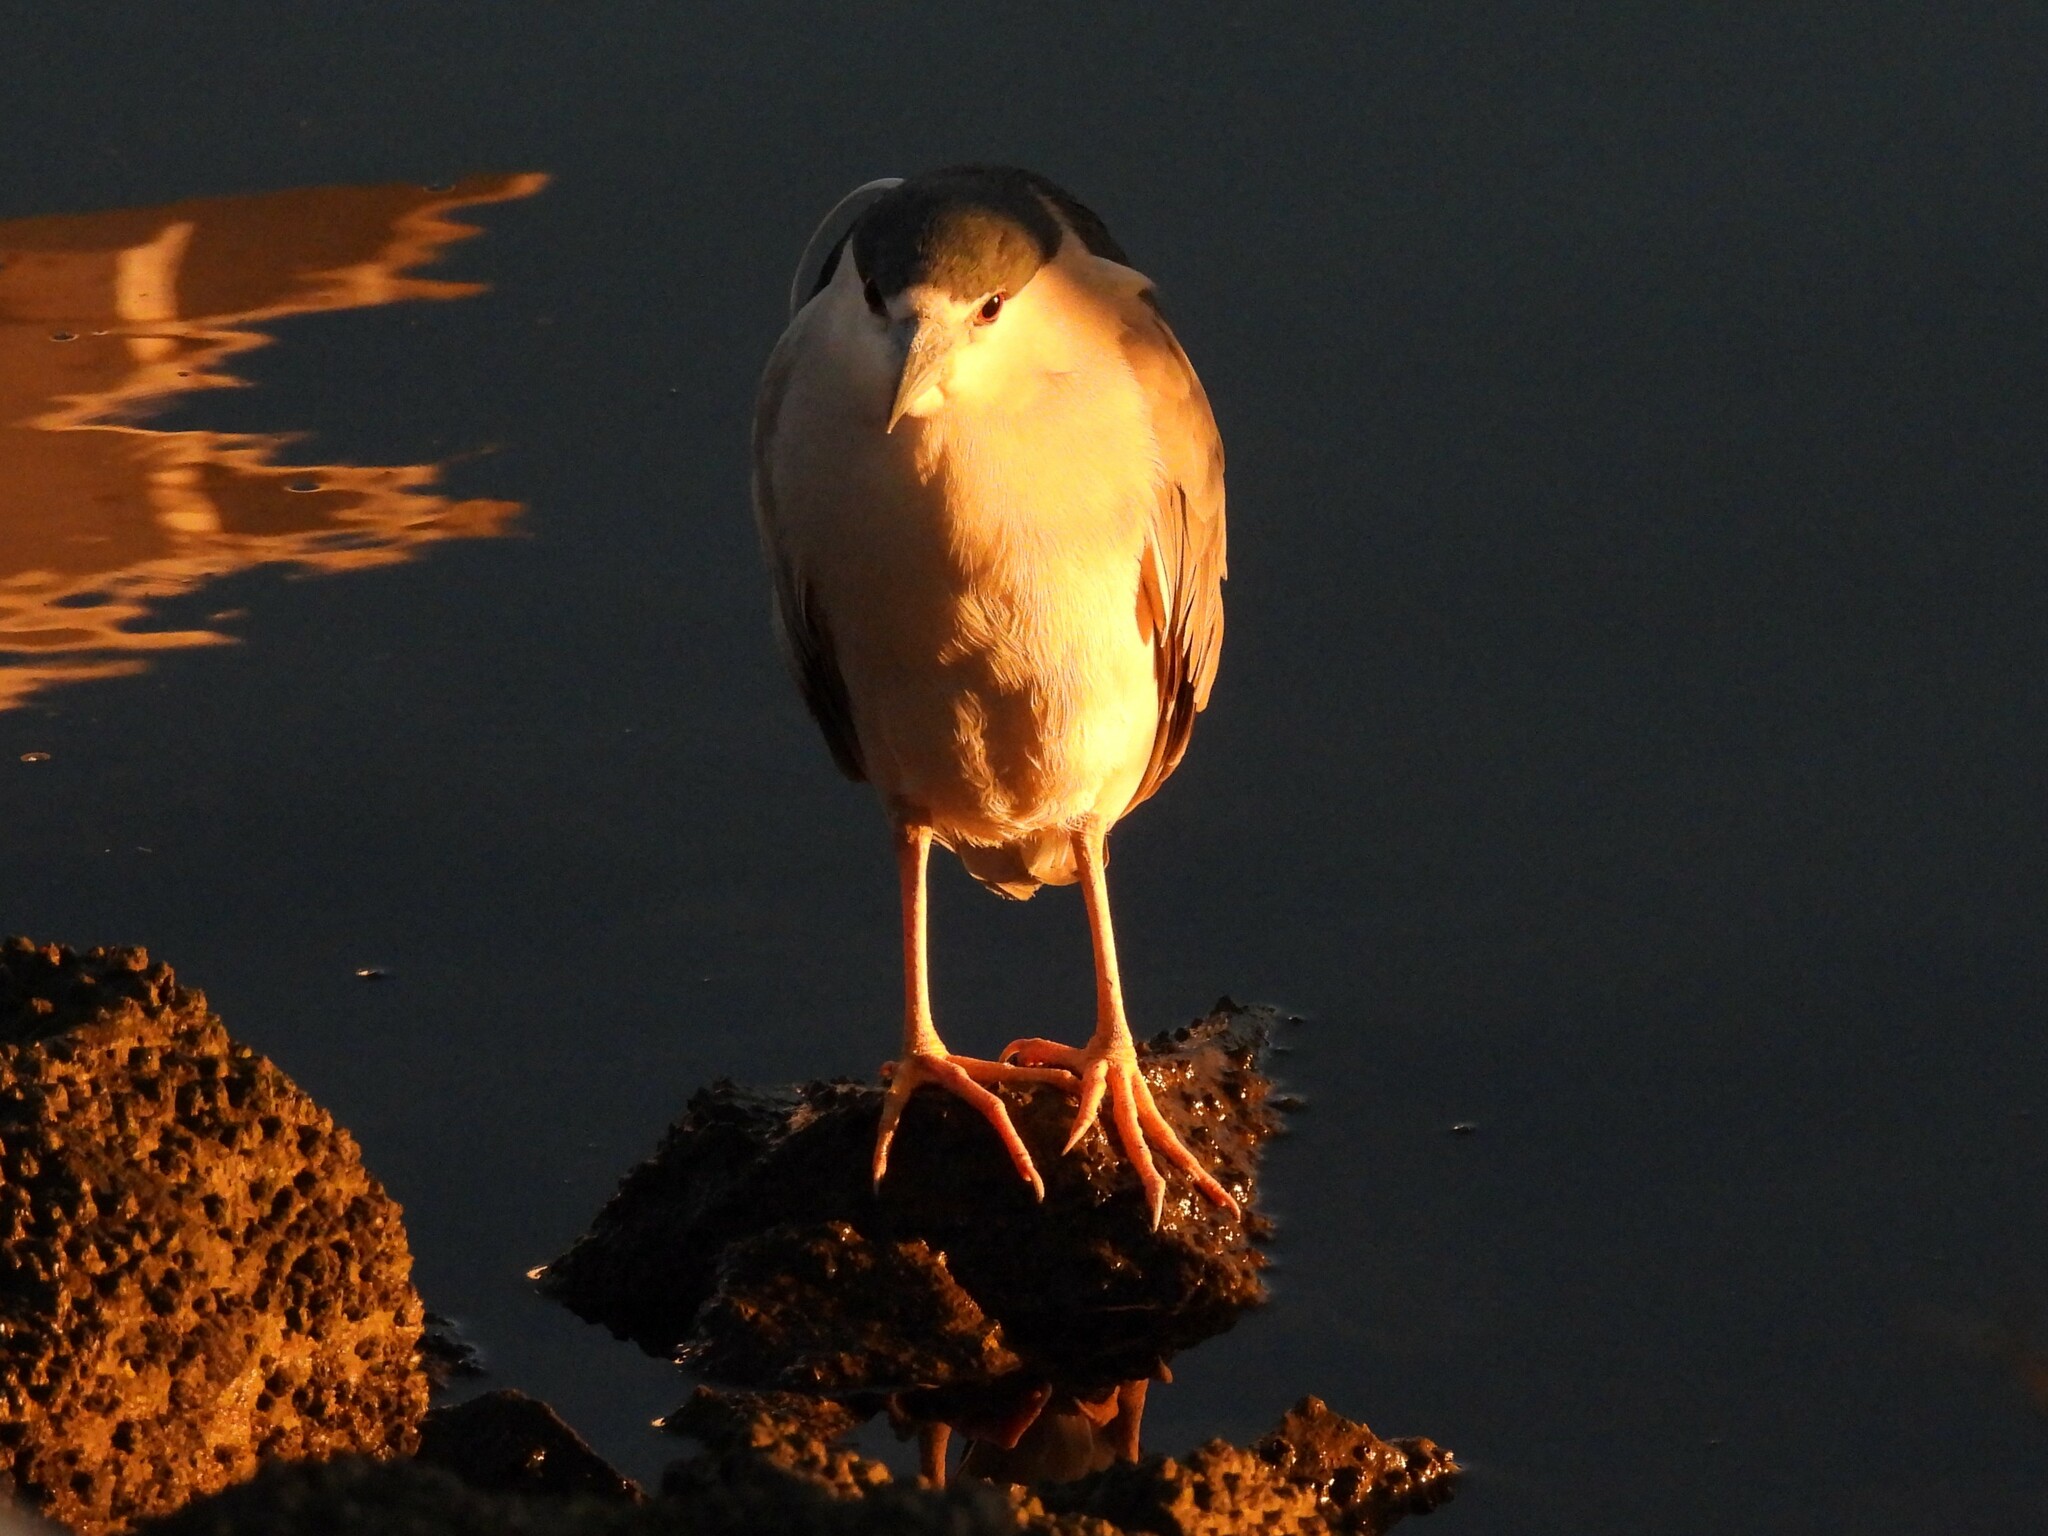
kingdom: Animalia
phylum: Chordata
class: Aves
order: Pelecaniformes
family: Ardeidae
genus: Nycticorax
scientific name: Nycticorax nycticorax
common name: Black-crowned night heron
